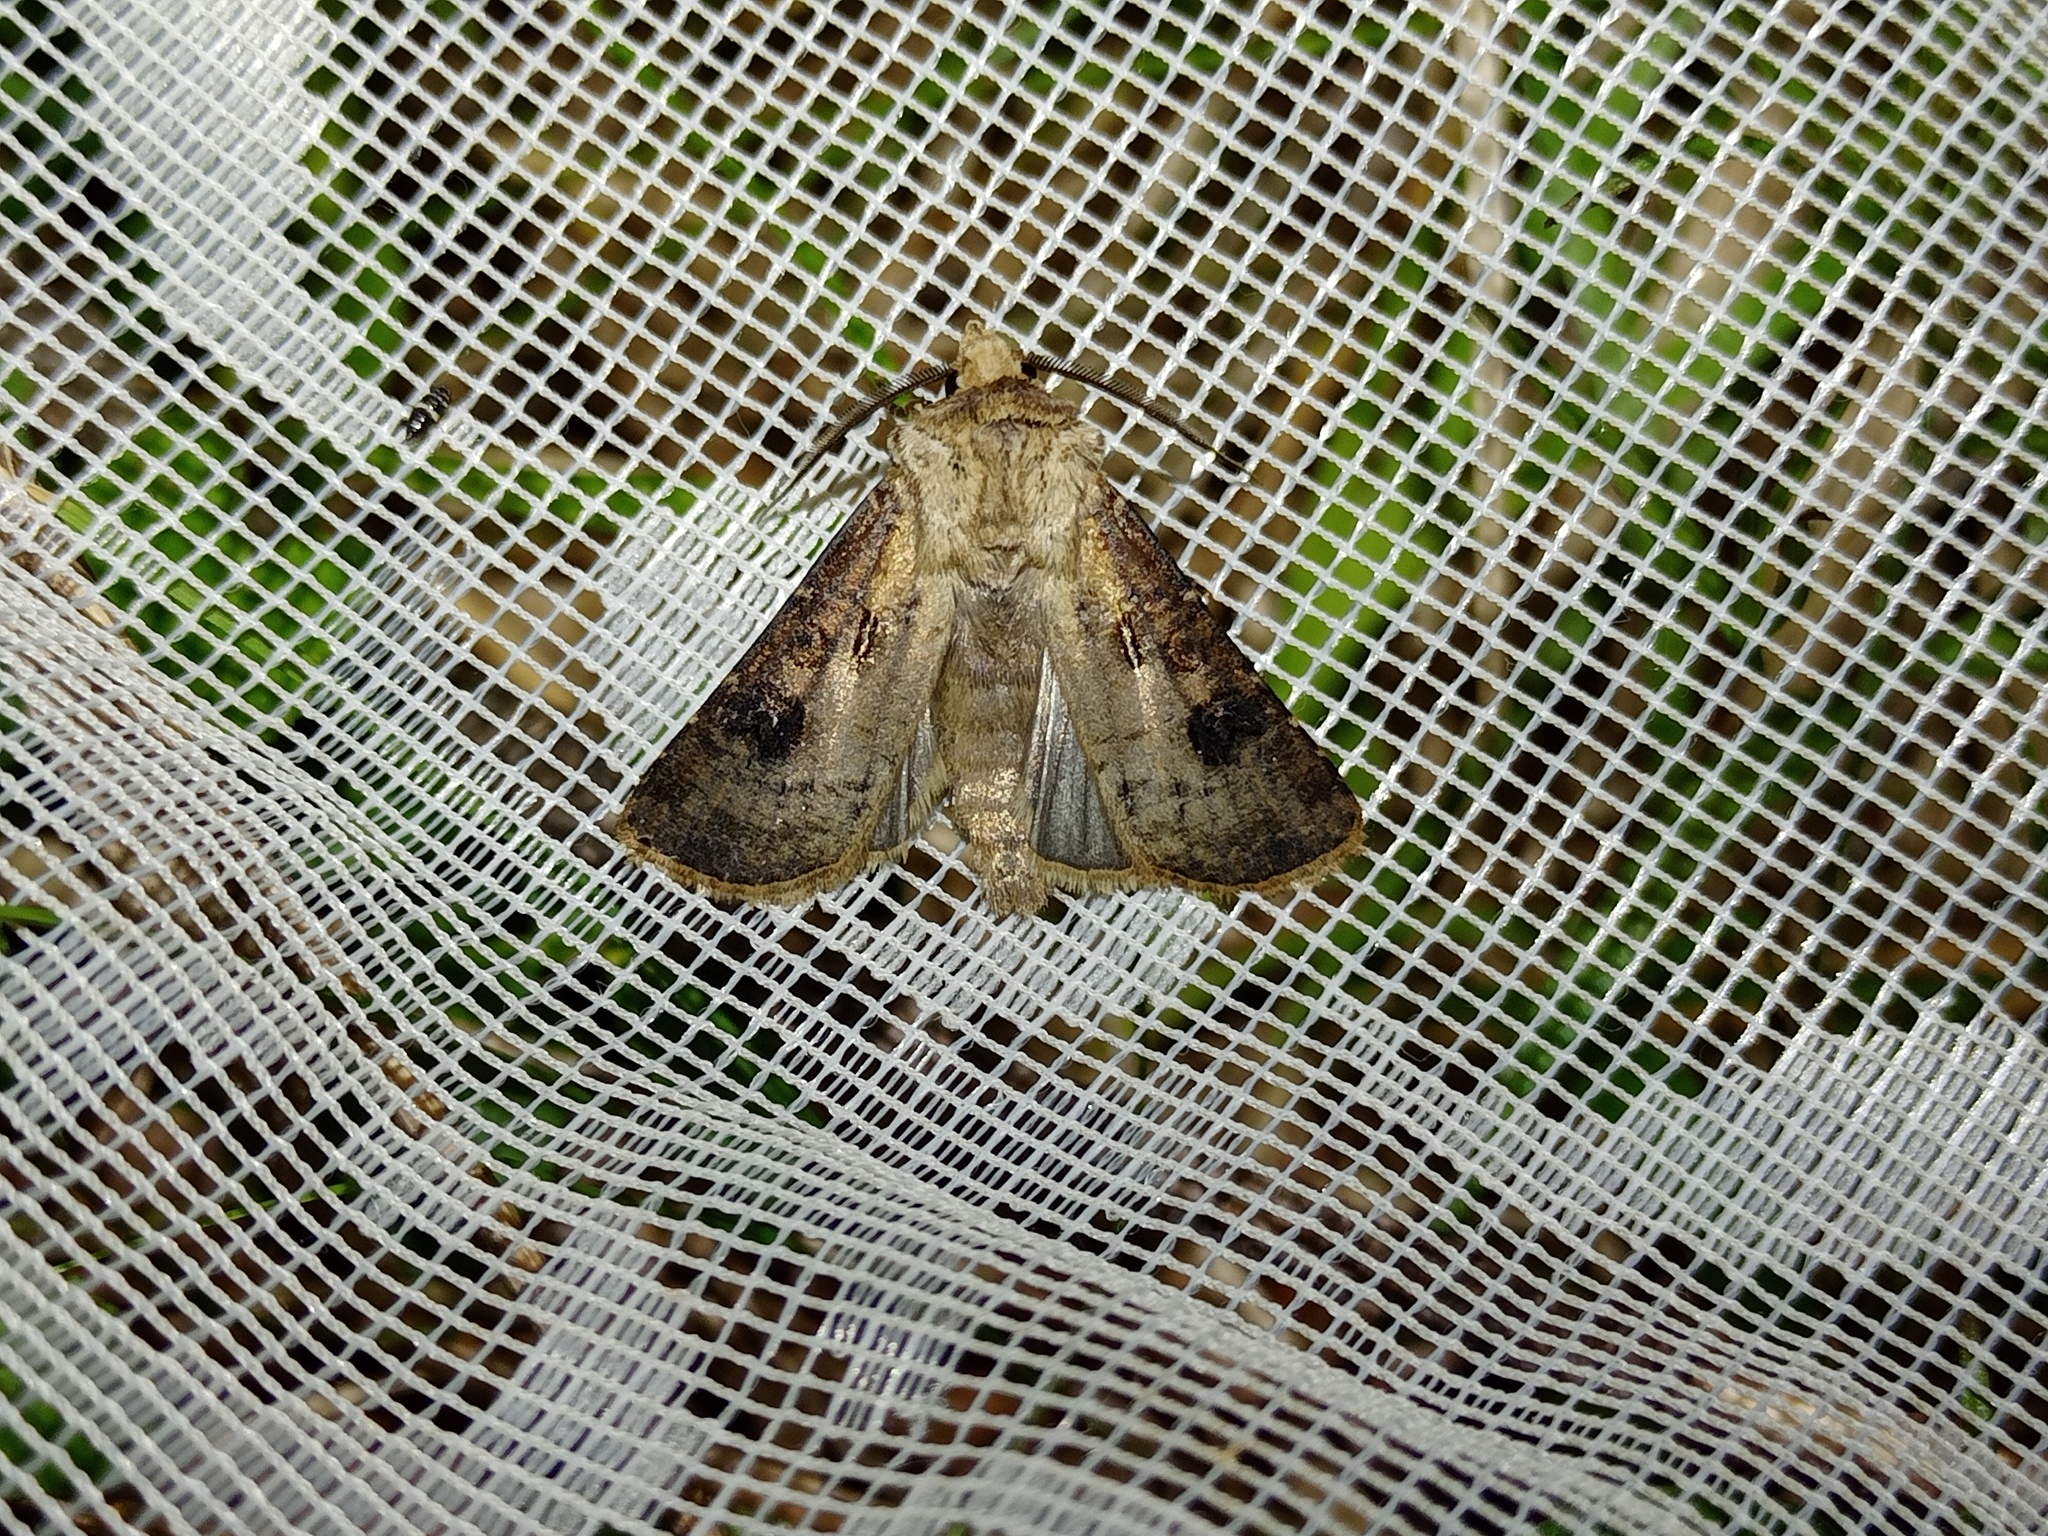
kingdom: Animalia
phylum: Arthropoda
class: Insecta
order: Lepidoptera
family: Noctuidae
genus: Agrotis
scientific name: Agrotis clavis
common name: Heart and club
